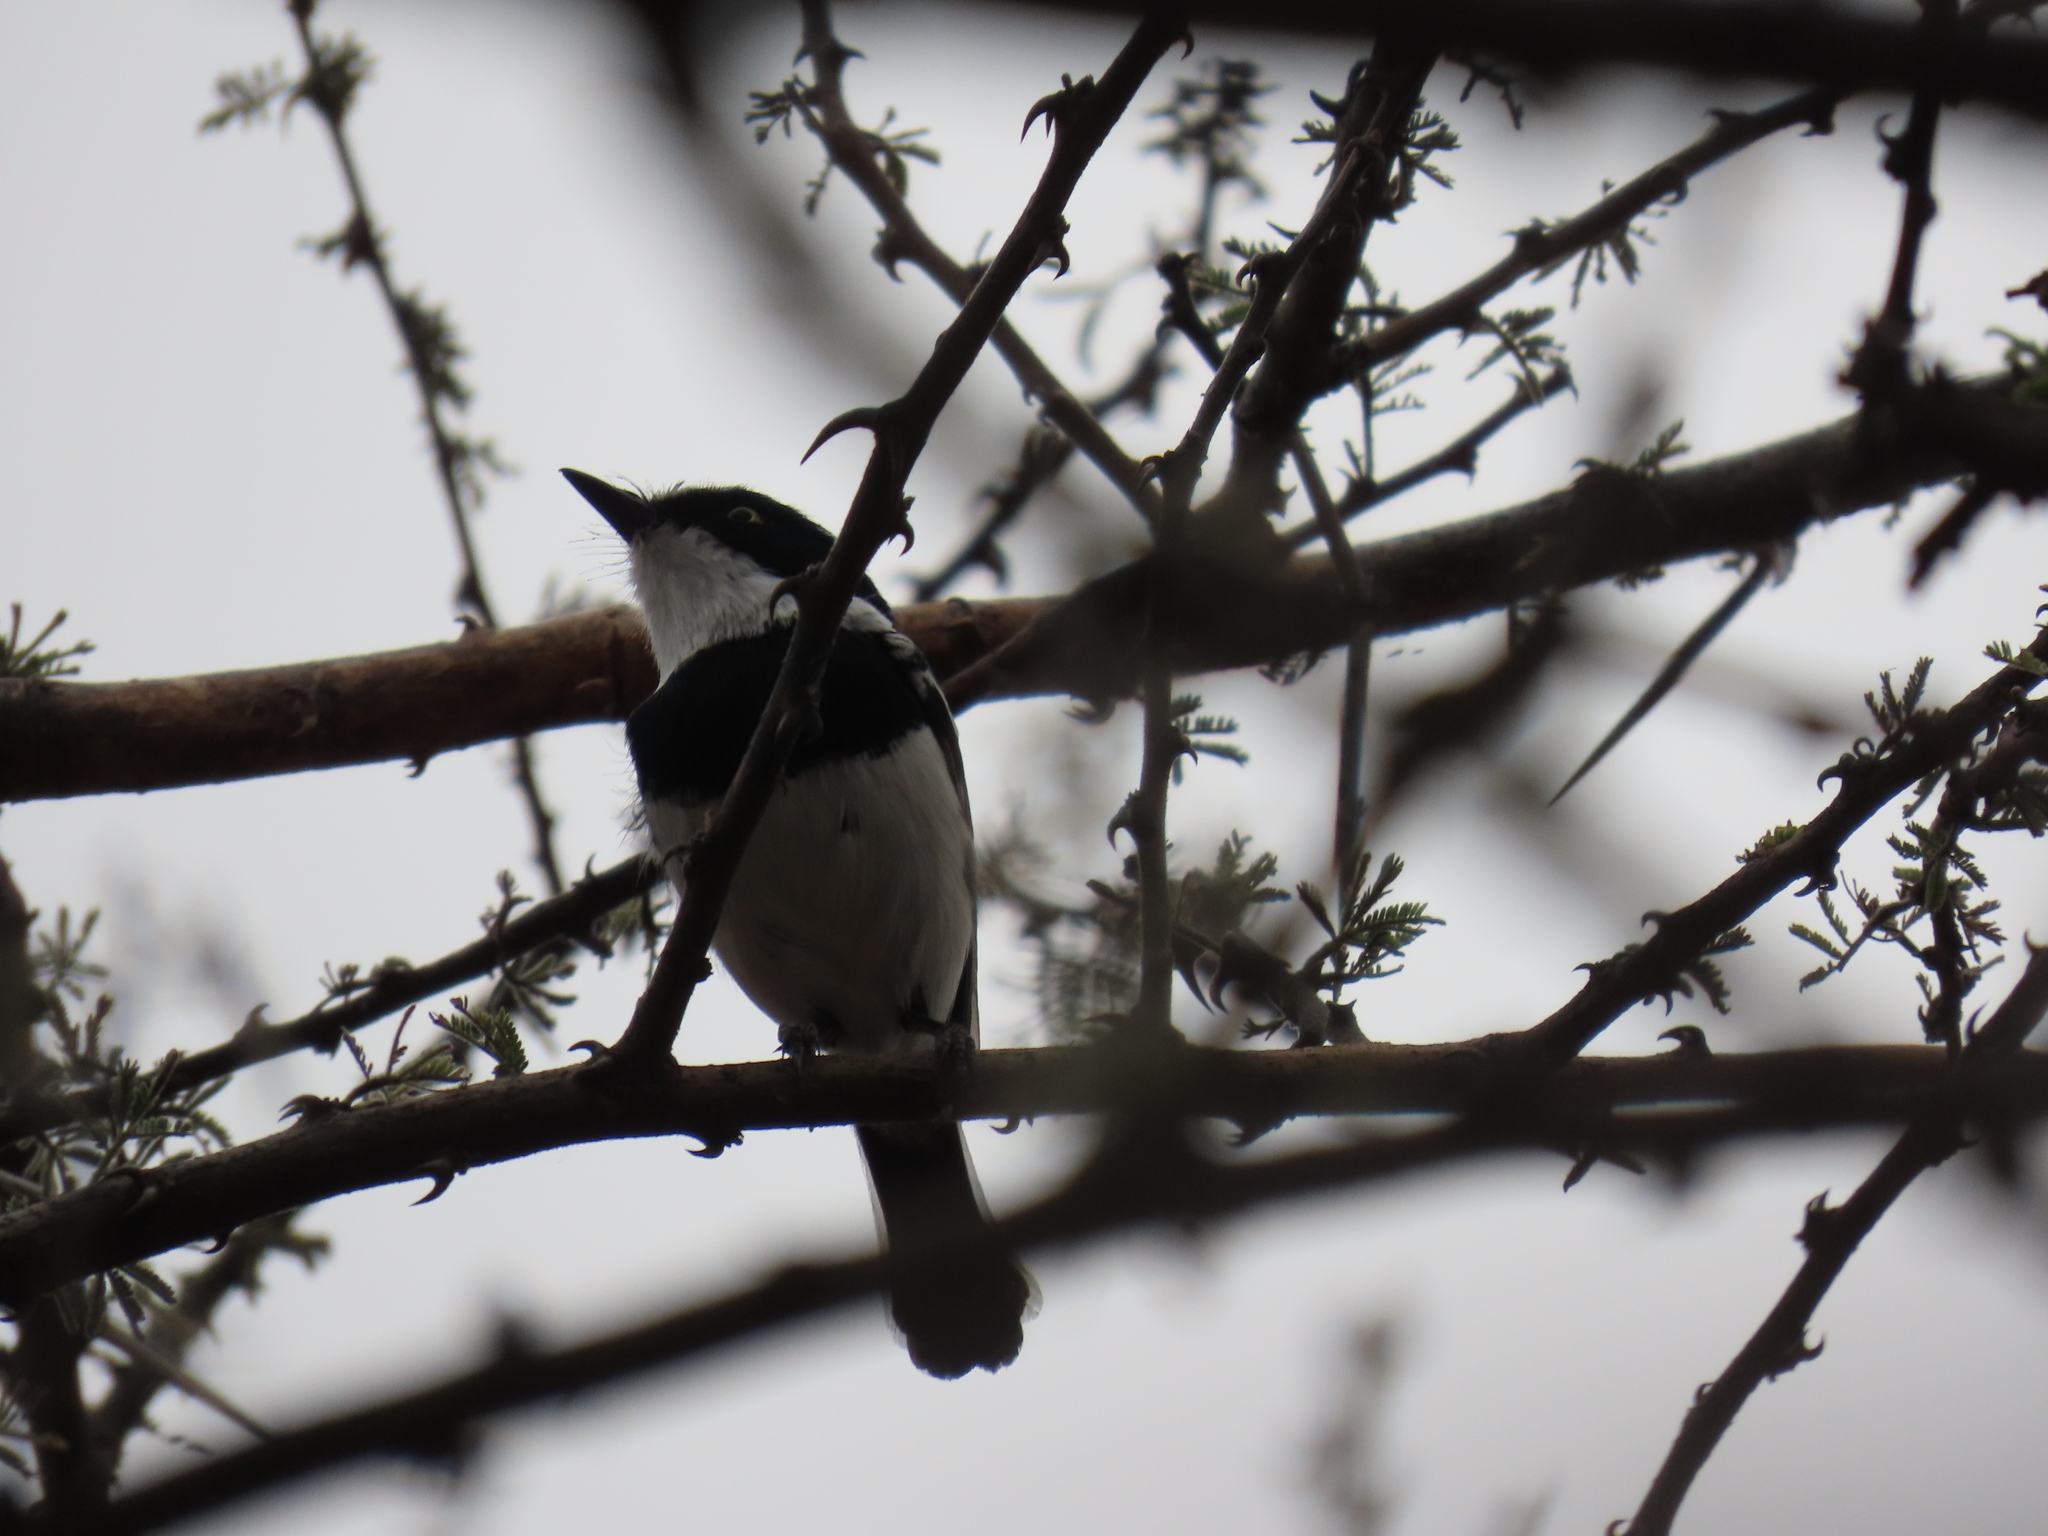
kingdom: Animalia
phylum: Chordata
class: Aves
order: Passeriformes
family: Platysteiridae
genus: Batis
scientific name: Batis pririt
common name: Pririt batis
